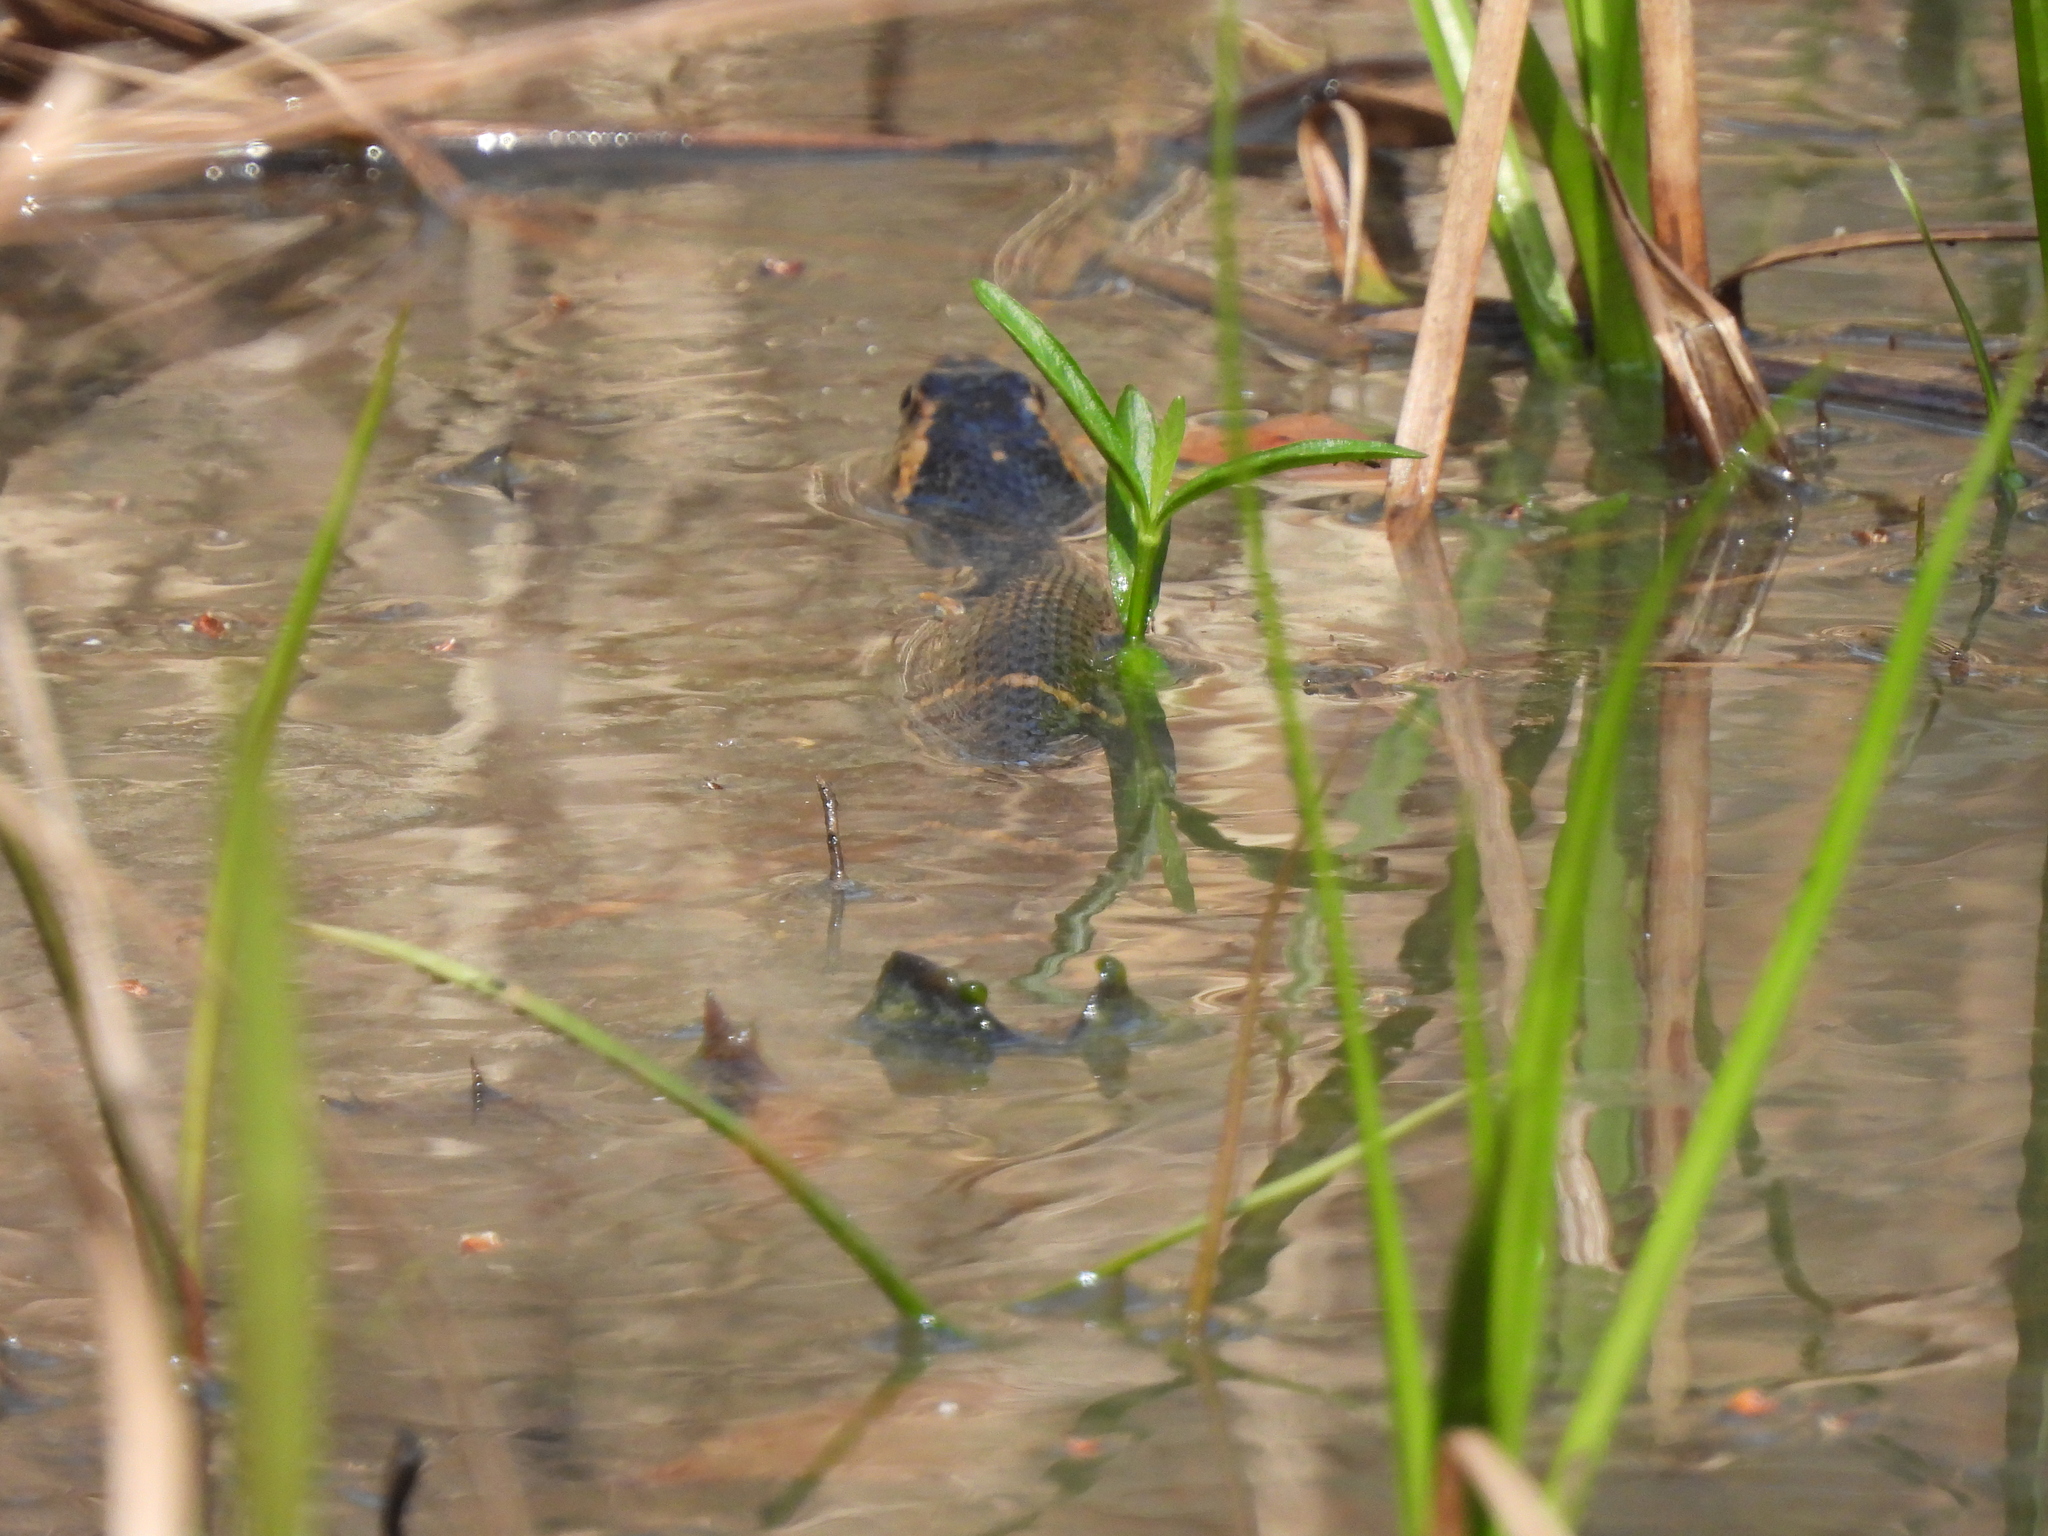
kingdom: Animalia
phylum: Chordata
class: Squamata
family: Colubridae
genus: Nerodia
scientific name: Nerodia fasciata
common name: Southern water snake
